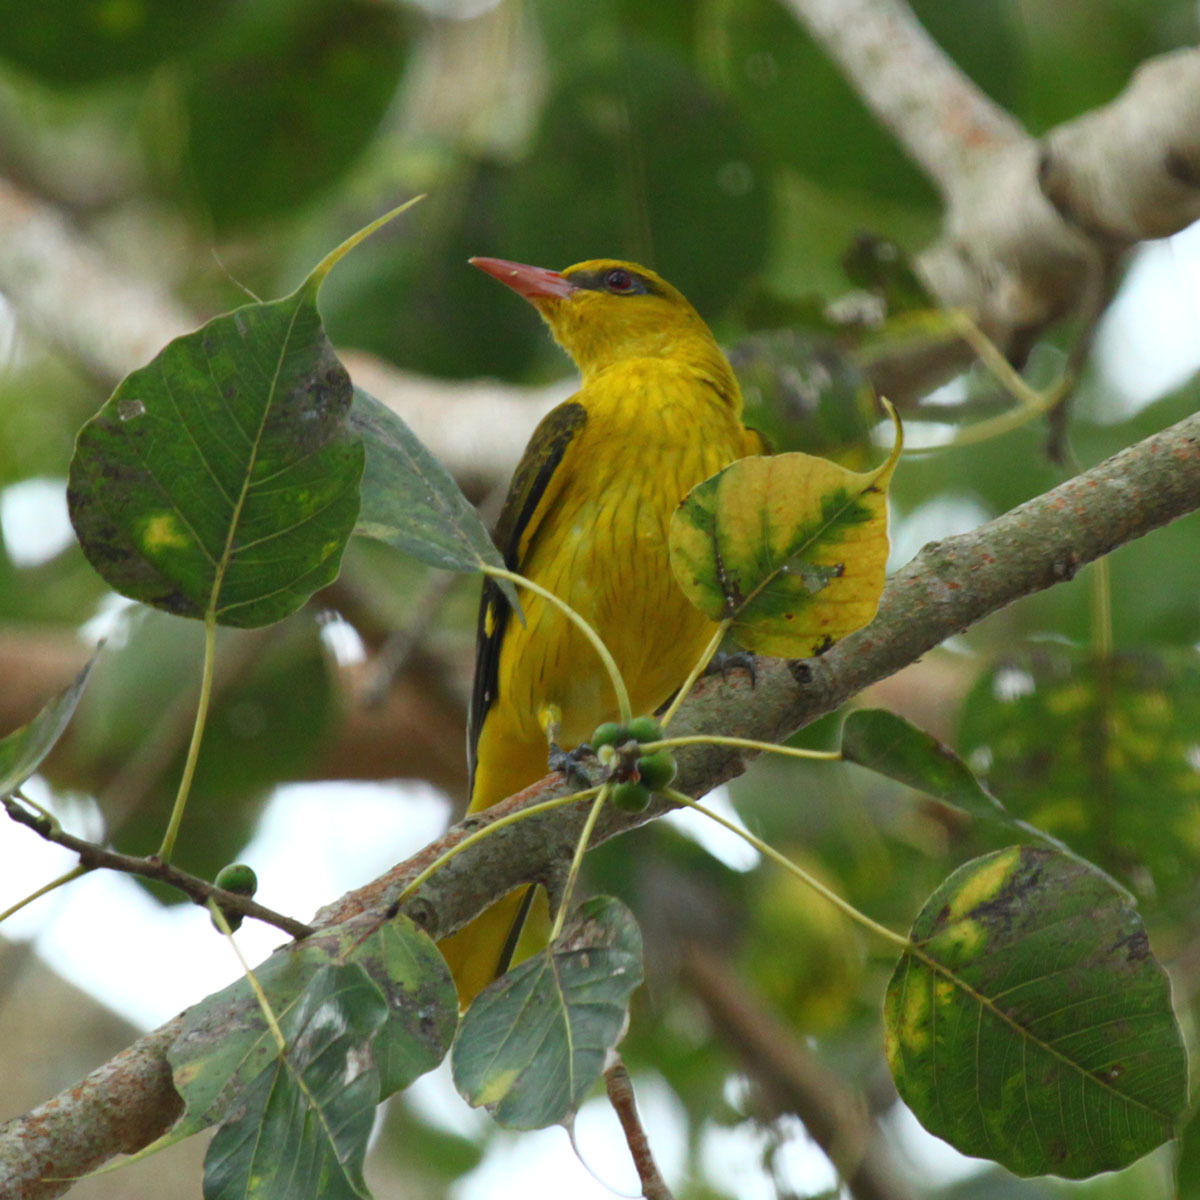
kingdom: Animalia
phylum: Chordata
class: Aves
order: Passeriformes
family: Oriolidae
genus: Oriolus
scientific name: Oriolus kundoo
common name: Indian golden oriole
